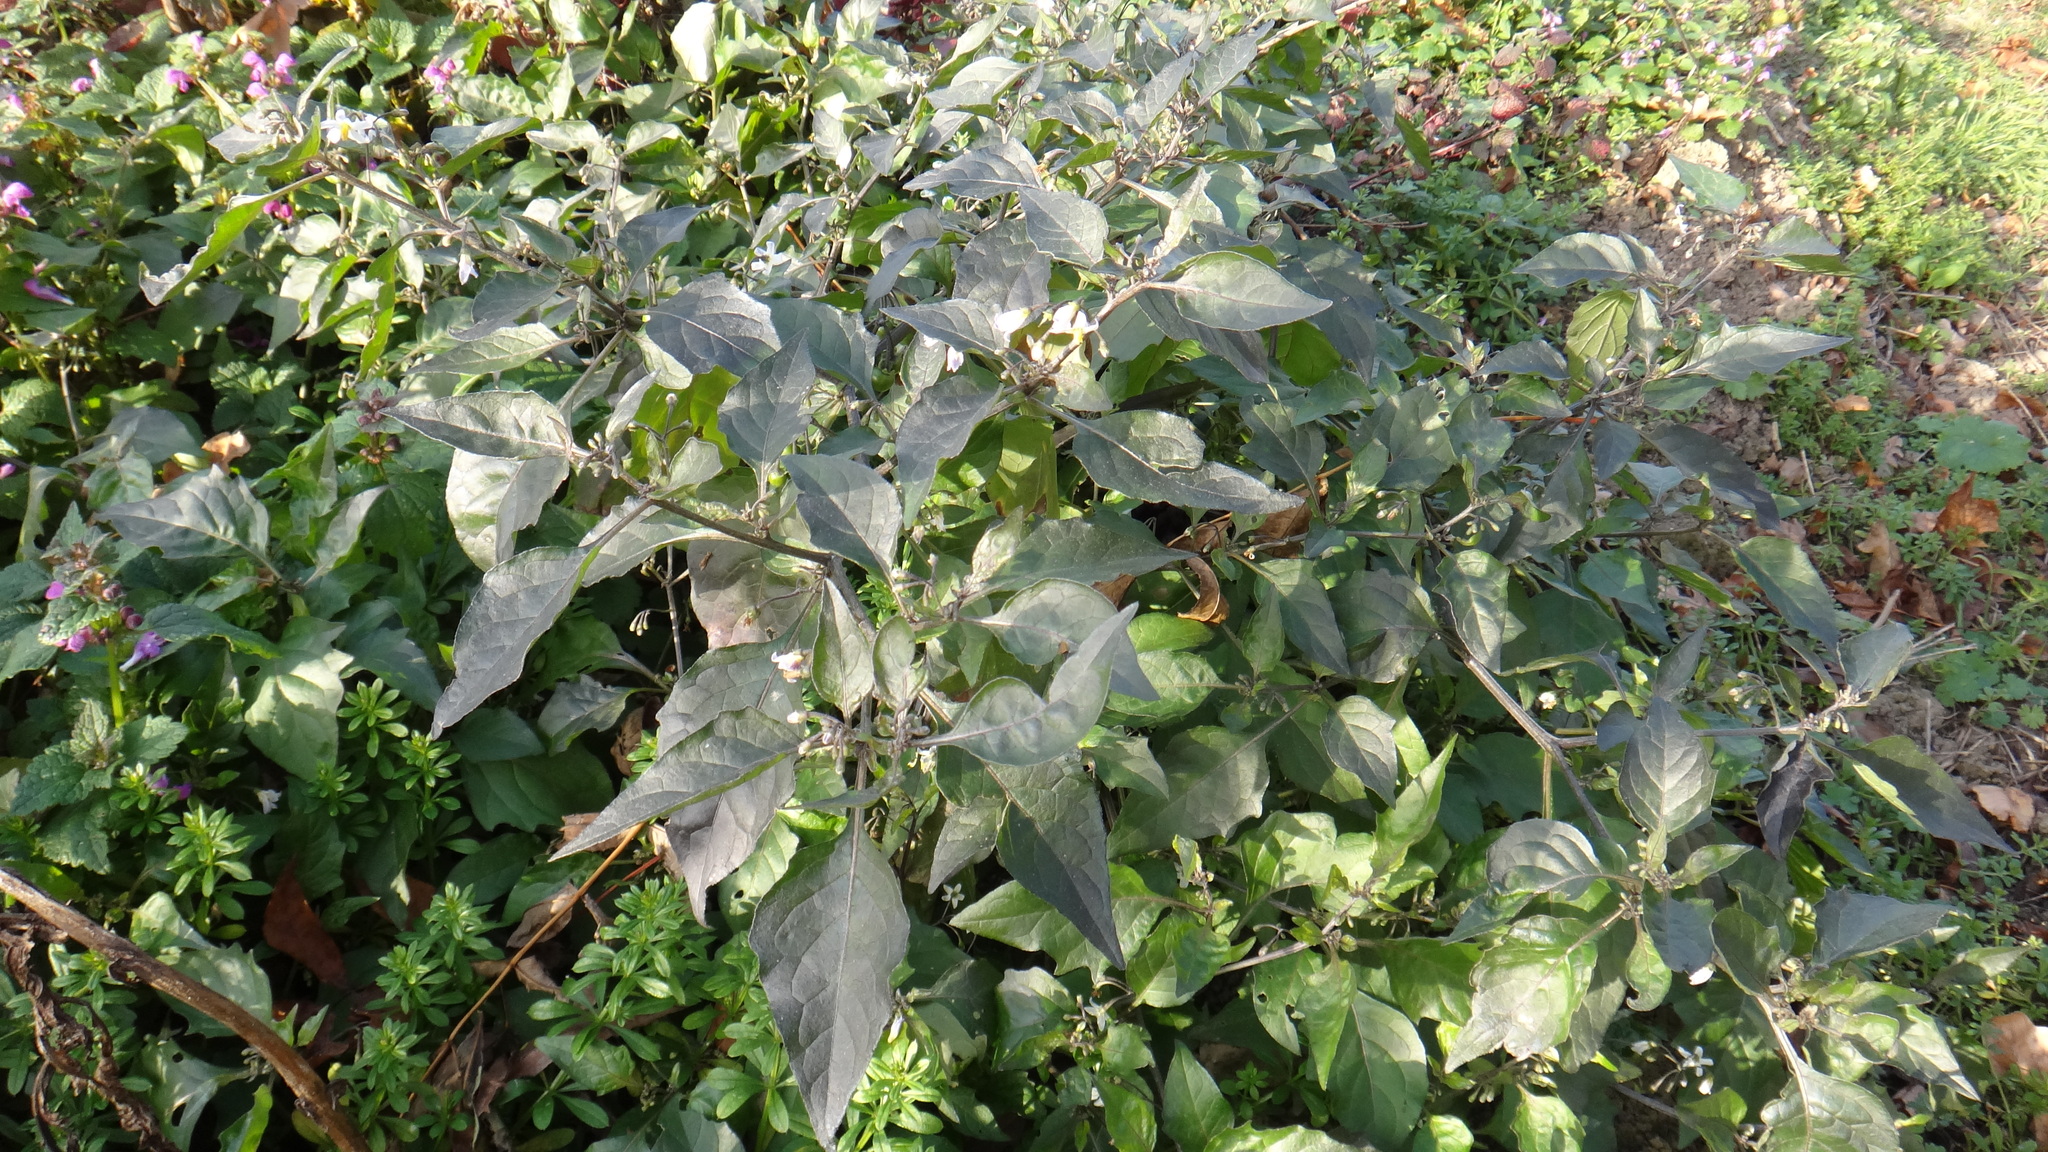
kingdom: Plantae
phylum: Tracheophyta
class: Magnoliopsida
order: Solanales
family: Solanaceae
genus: Solanum
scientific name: Solanum nigrum
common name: Black nightshade
